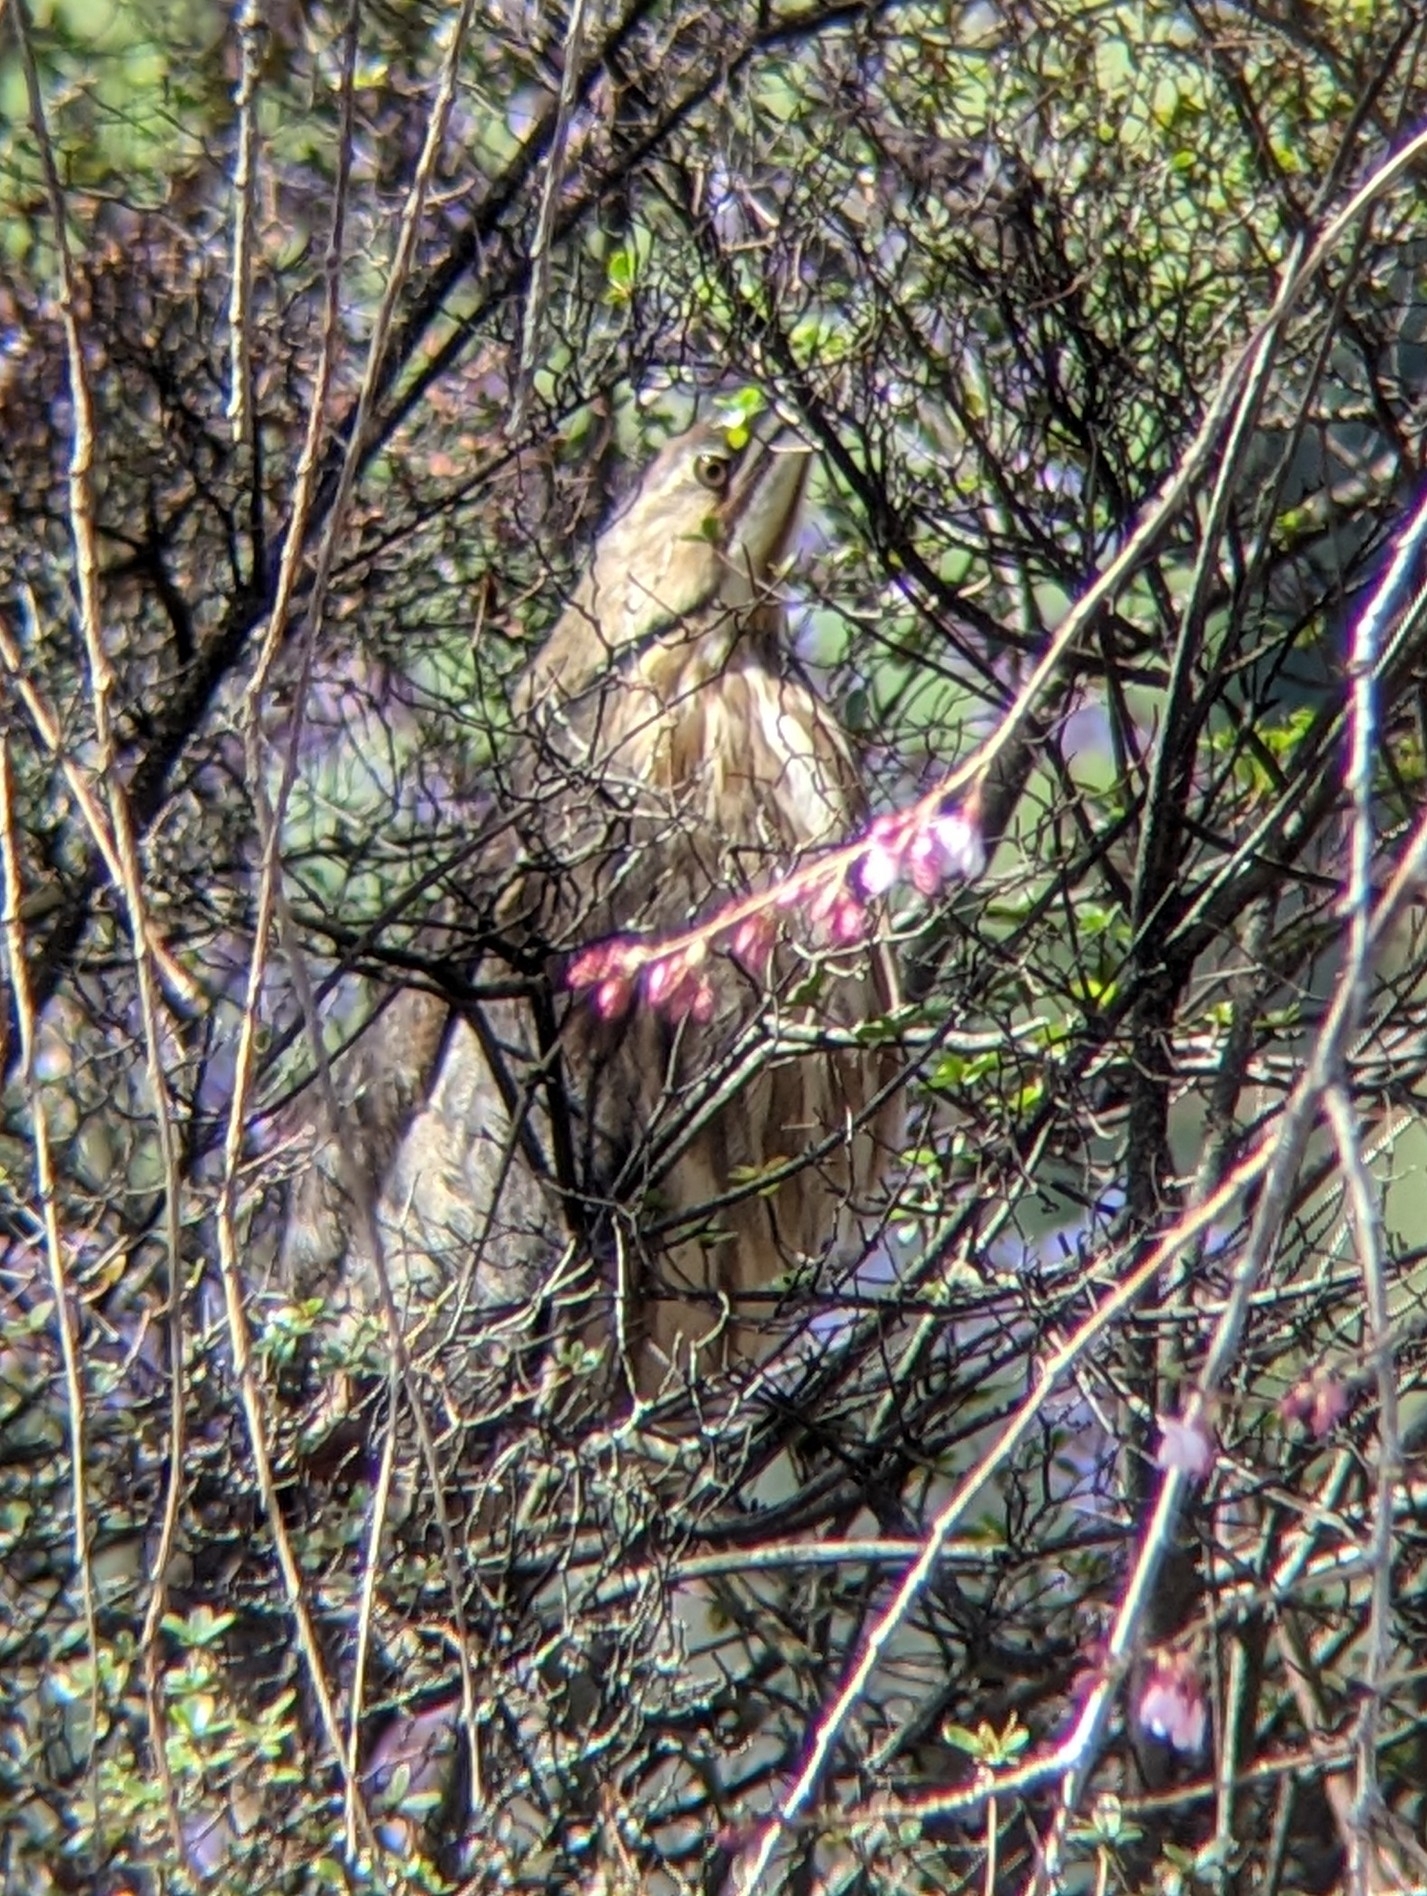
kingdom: Animalia
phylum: Chordata
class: Aves
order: Pelecaniformes
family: Ardeidae
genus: Botaurus
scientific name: Botaurus lentiginosus
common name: American bittern
